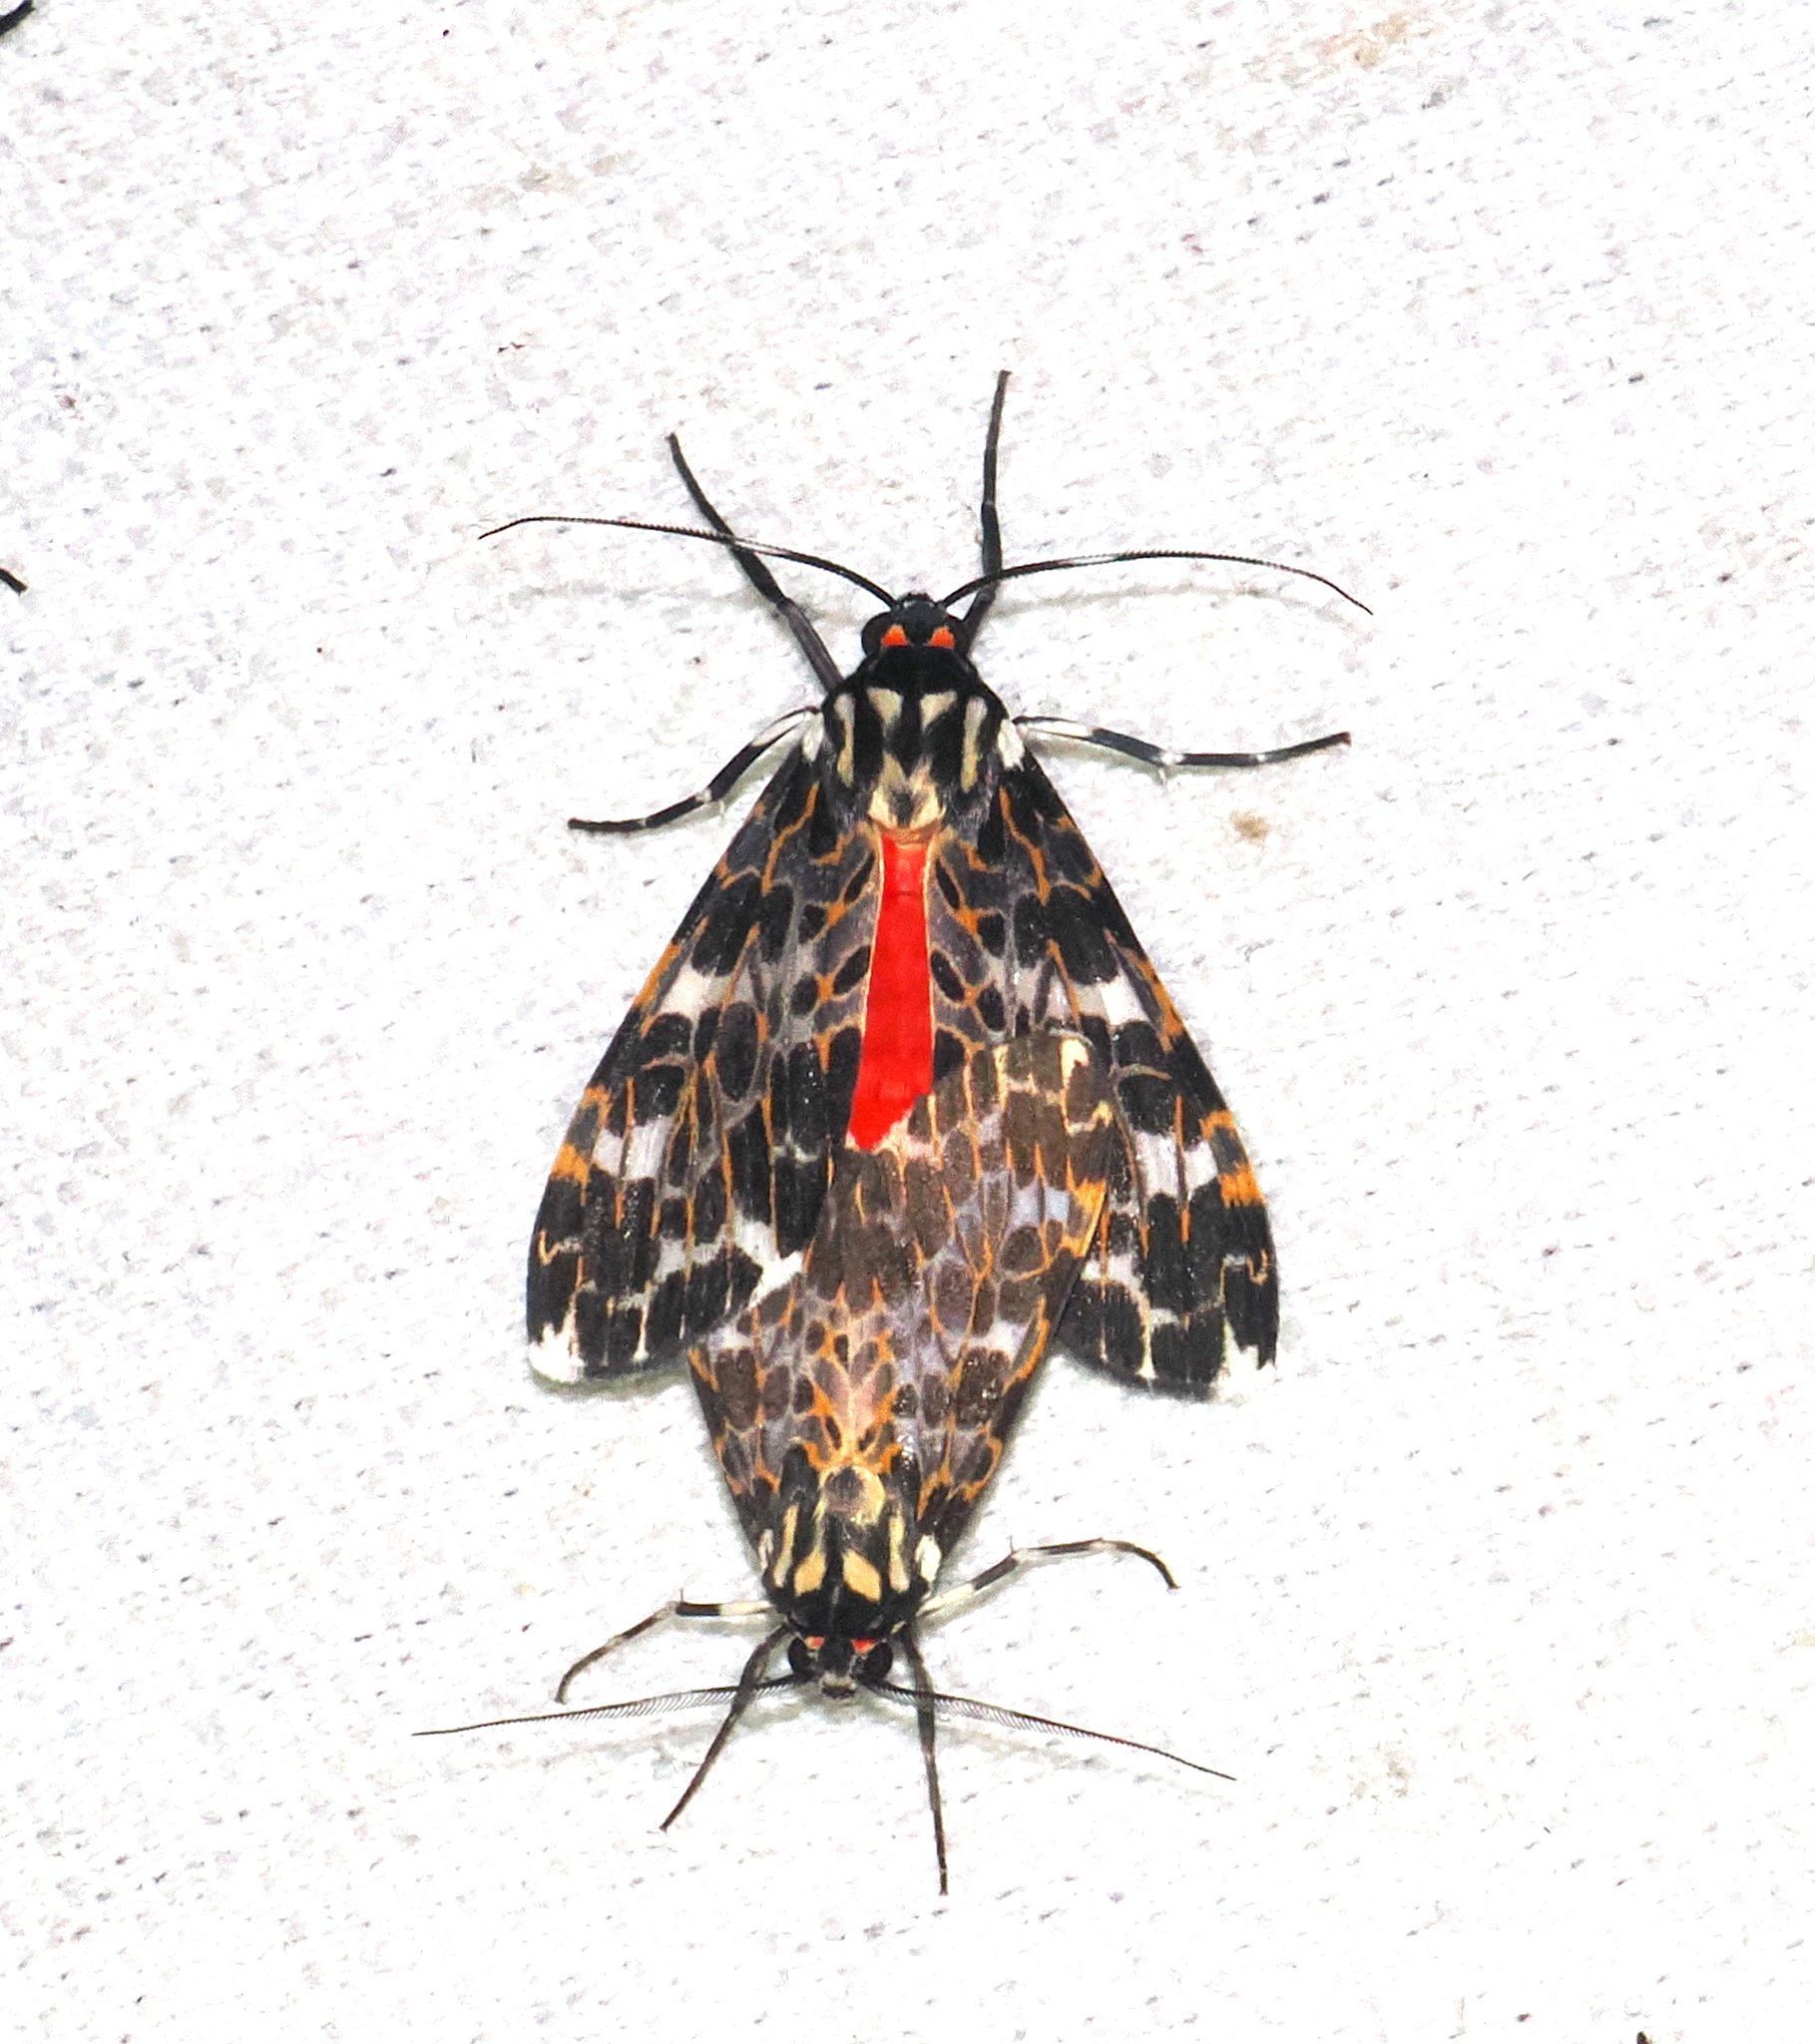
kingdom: Animalia
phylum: Arthropoda
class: Insecta
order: Lepidoptera
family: Erebidae
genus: Eucereon
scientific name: Eucereon tarona
